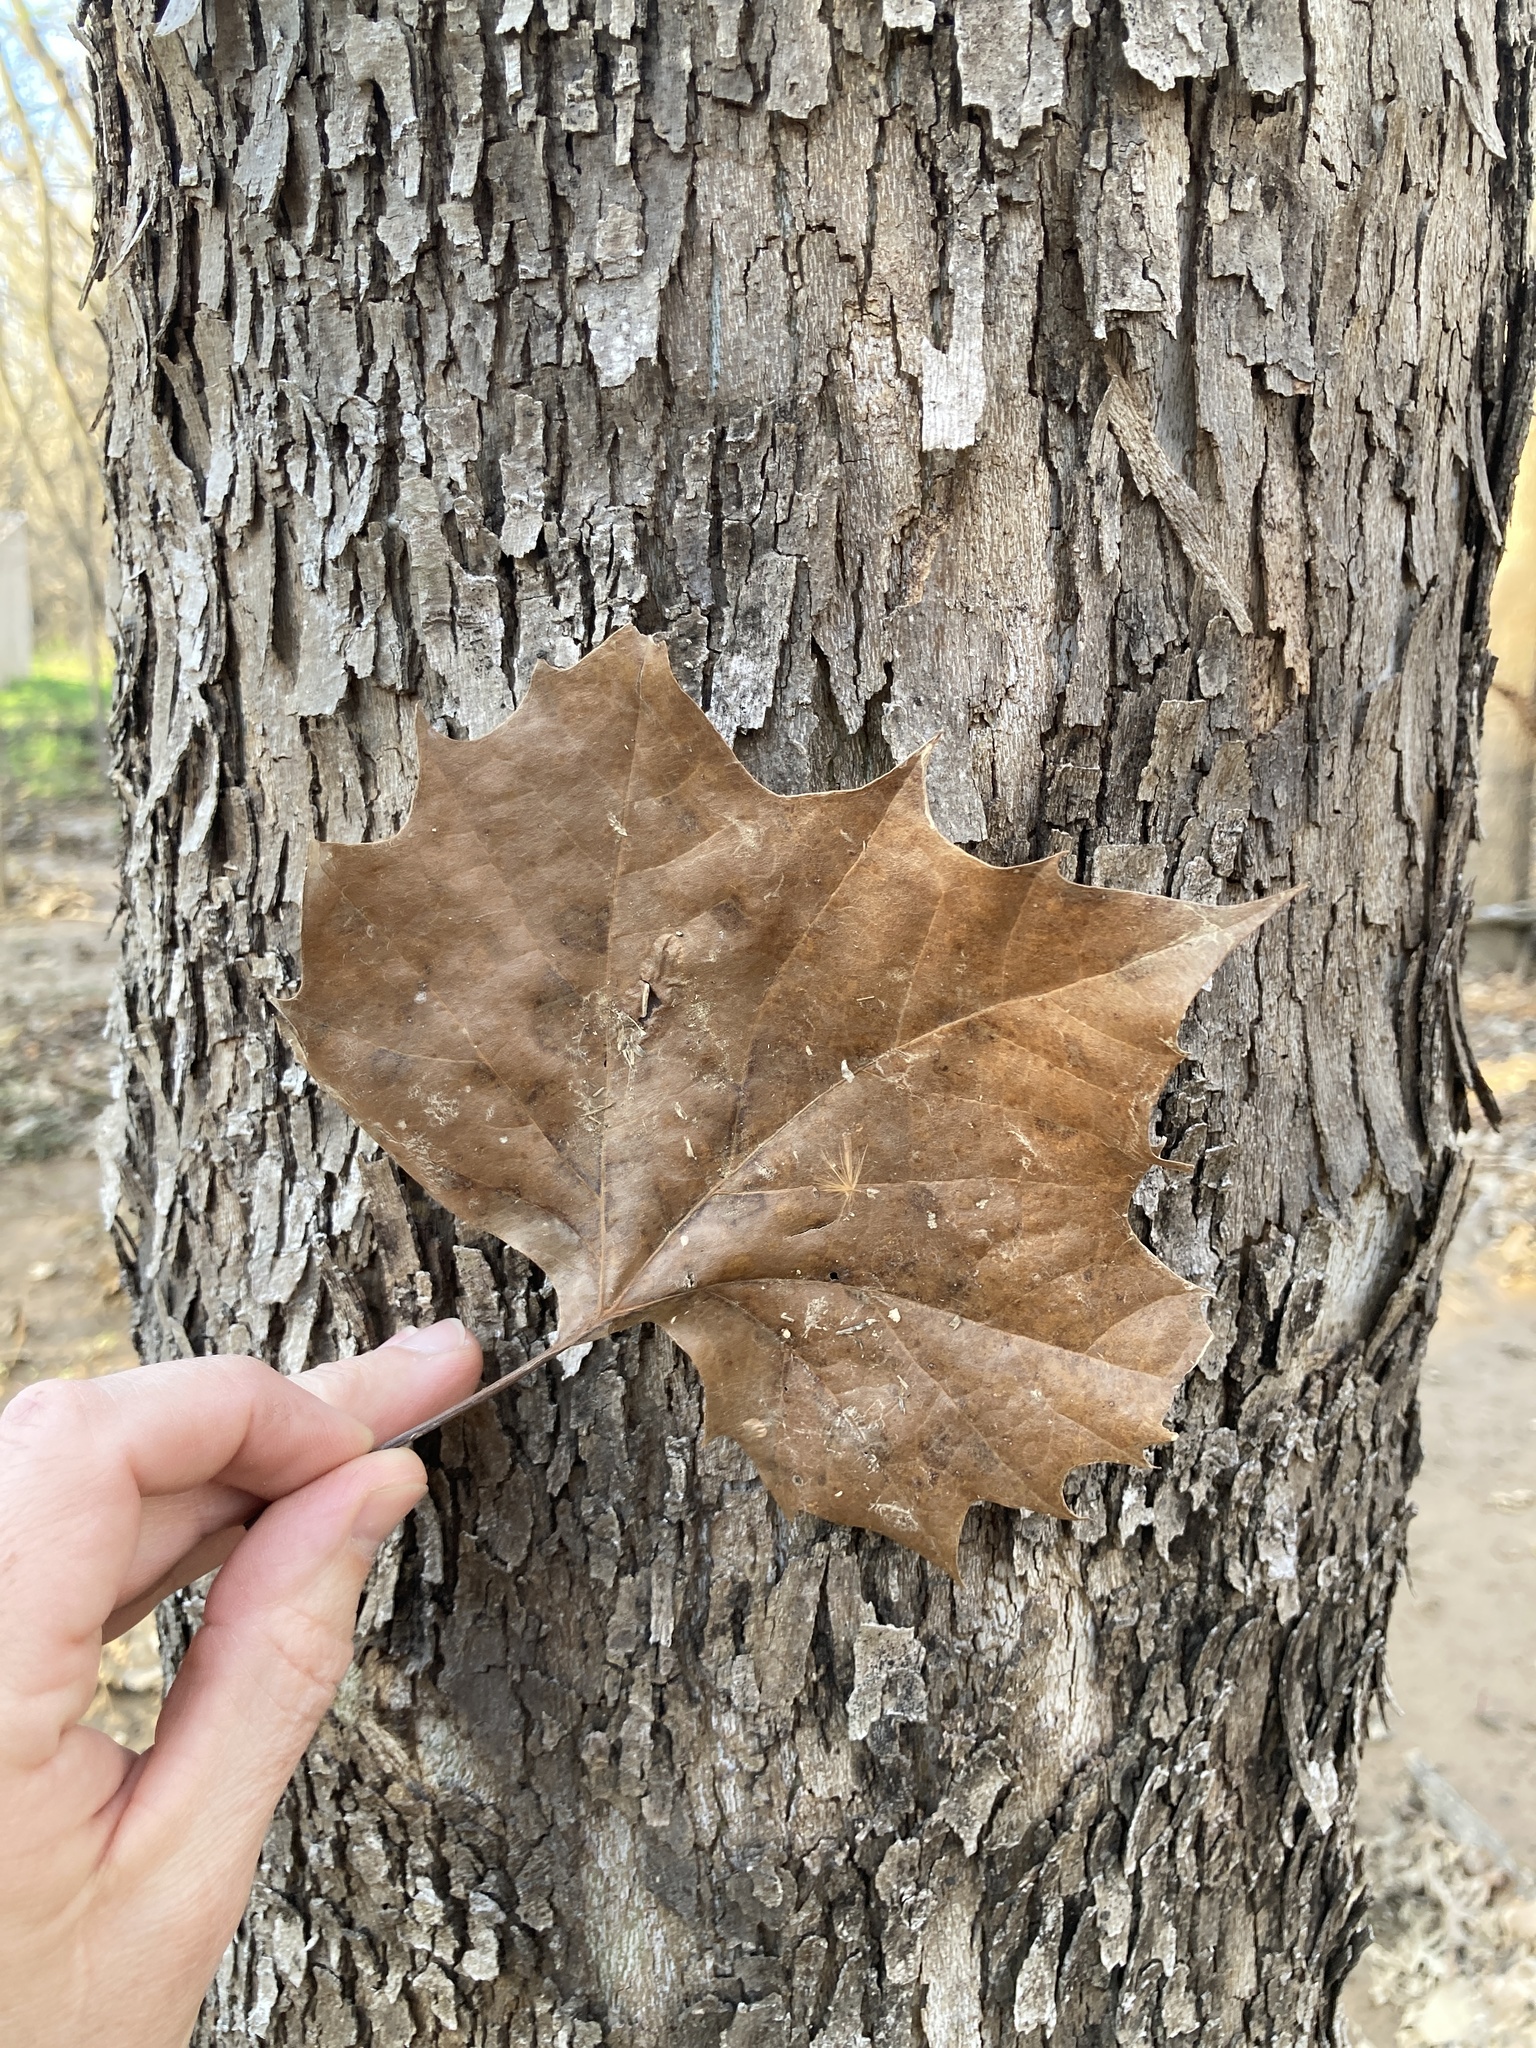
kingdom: Plantae
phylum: Tracheophyta
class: Magnoliopsida
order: Proteales
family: Platanaceae
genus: Platanus
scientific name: Platanus occidentalis
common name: American sycamore
